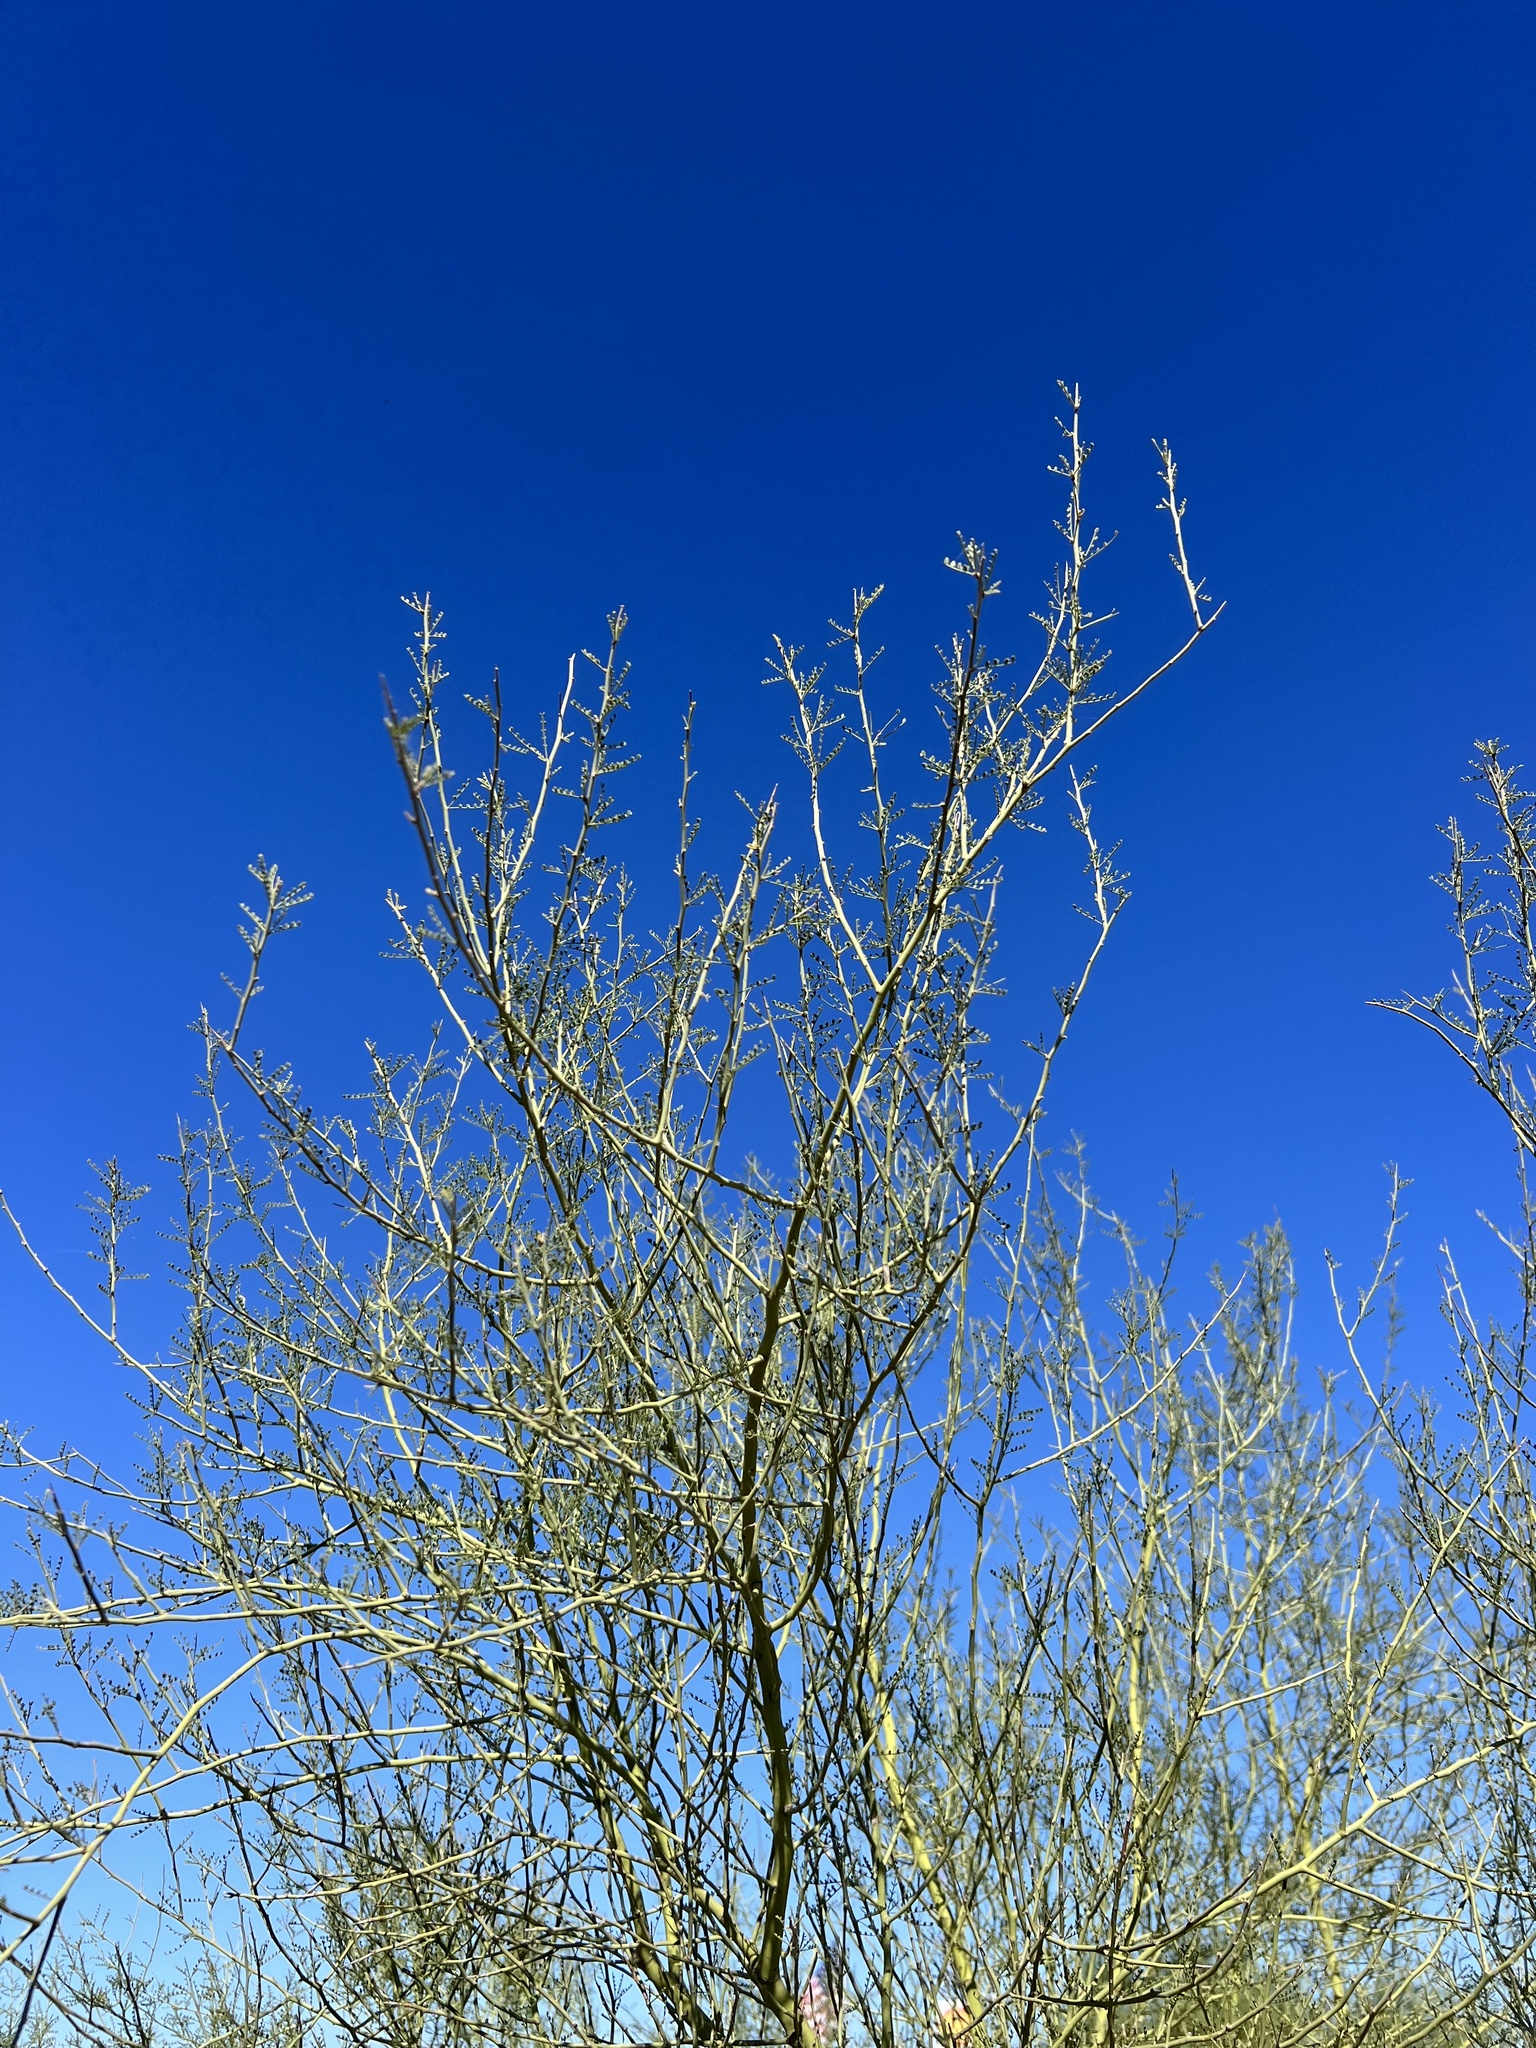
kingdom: Plantae
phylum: Tracheophyta
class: Magnoliopsida
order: Fabales
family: Fabaceae
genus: Parkinsonia
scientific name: Parkinsonia microphylla
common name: Yellow paloverde
